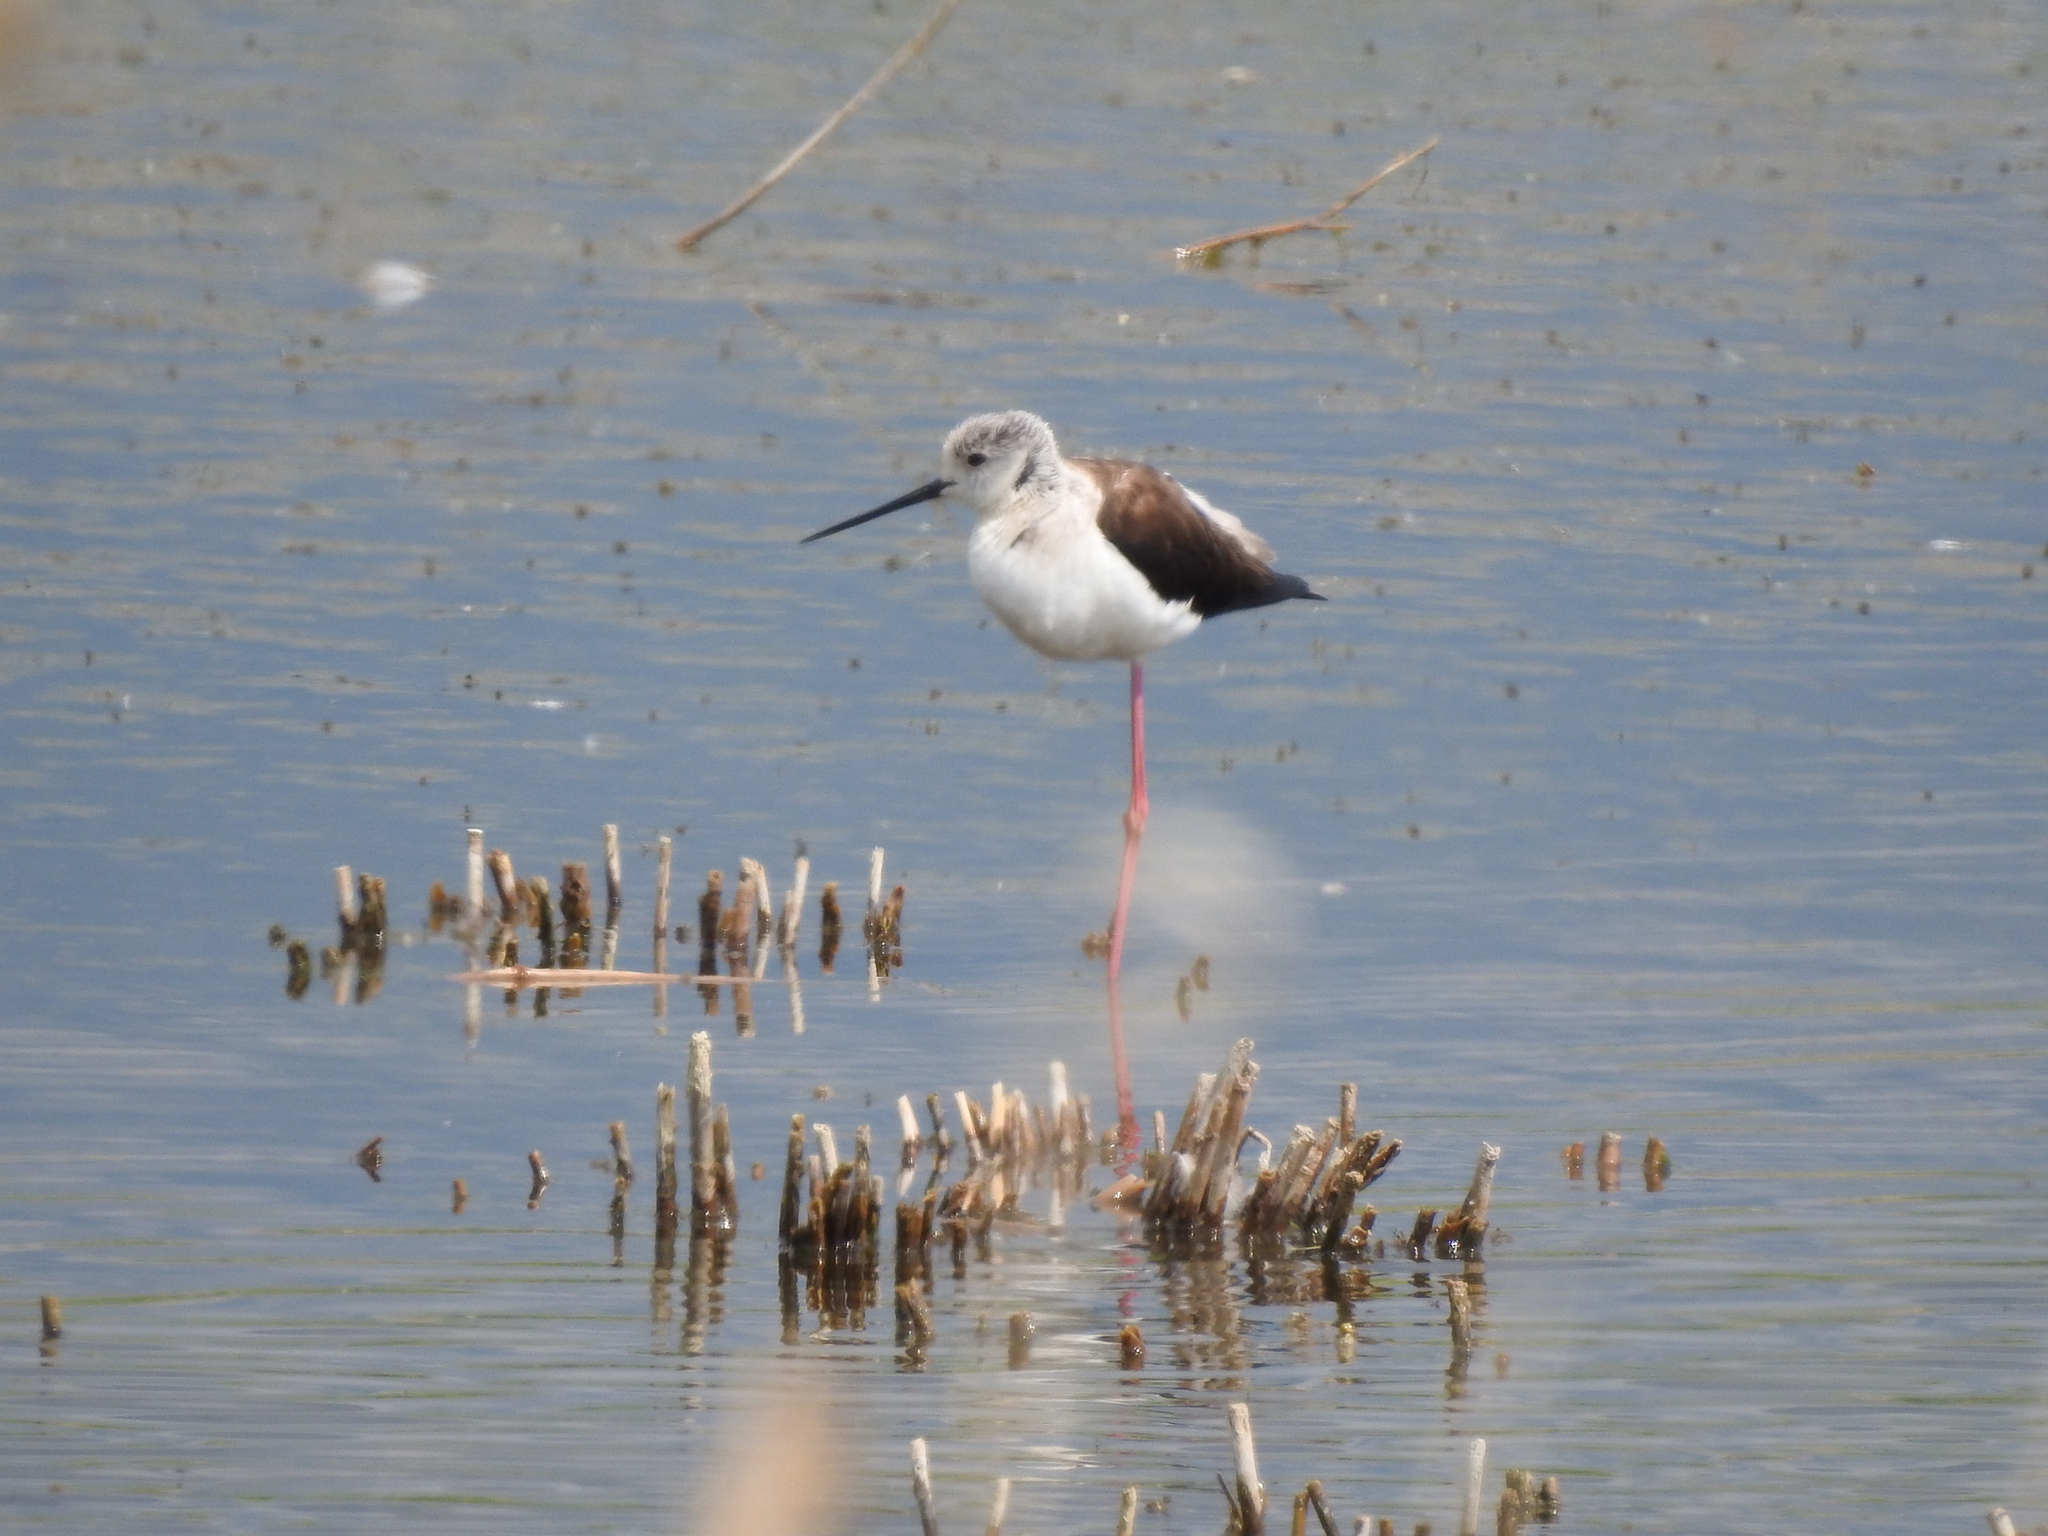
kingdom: Animalia
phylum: Chordata
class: Aves
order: Charadriiformes
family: Recurvirostridae
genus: Himantopus
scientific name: Himantopus himantopus
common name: Black-winged stilt
